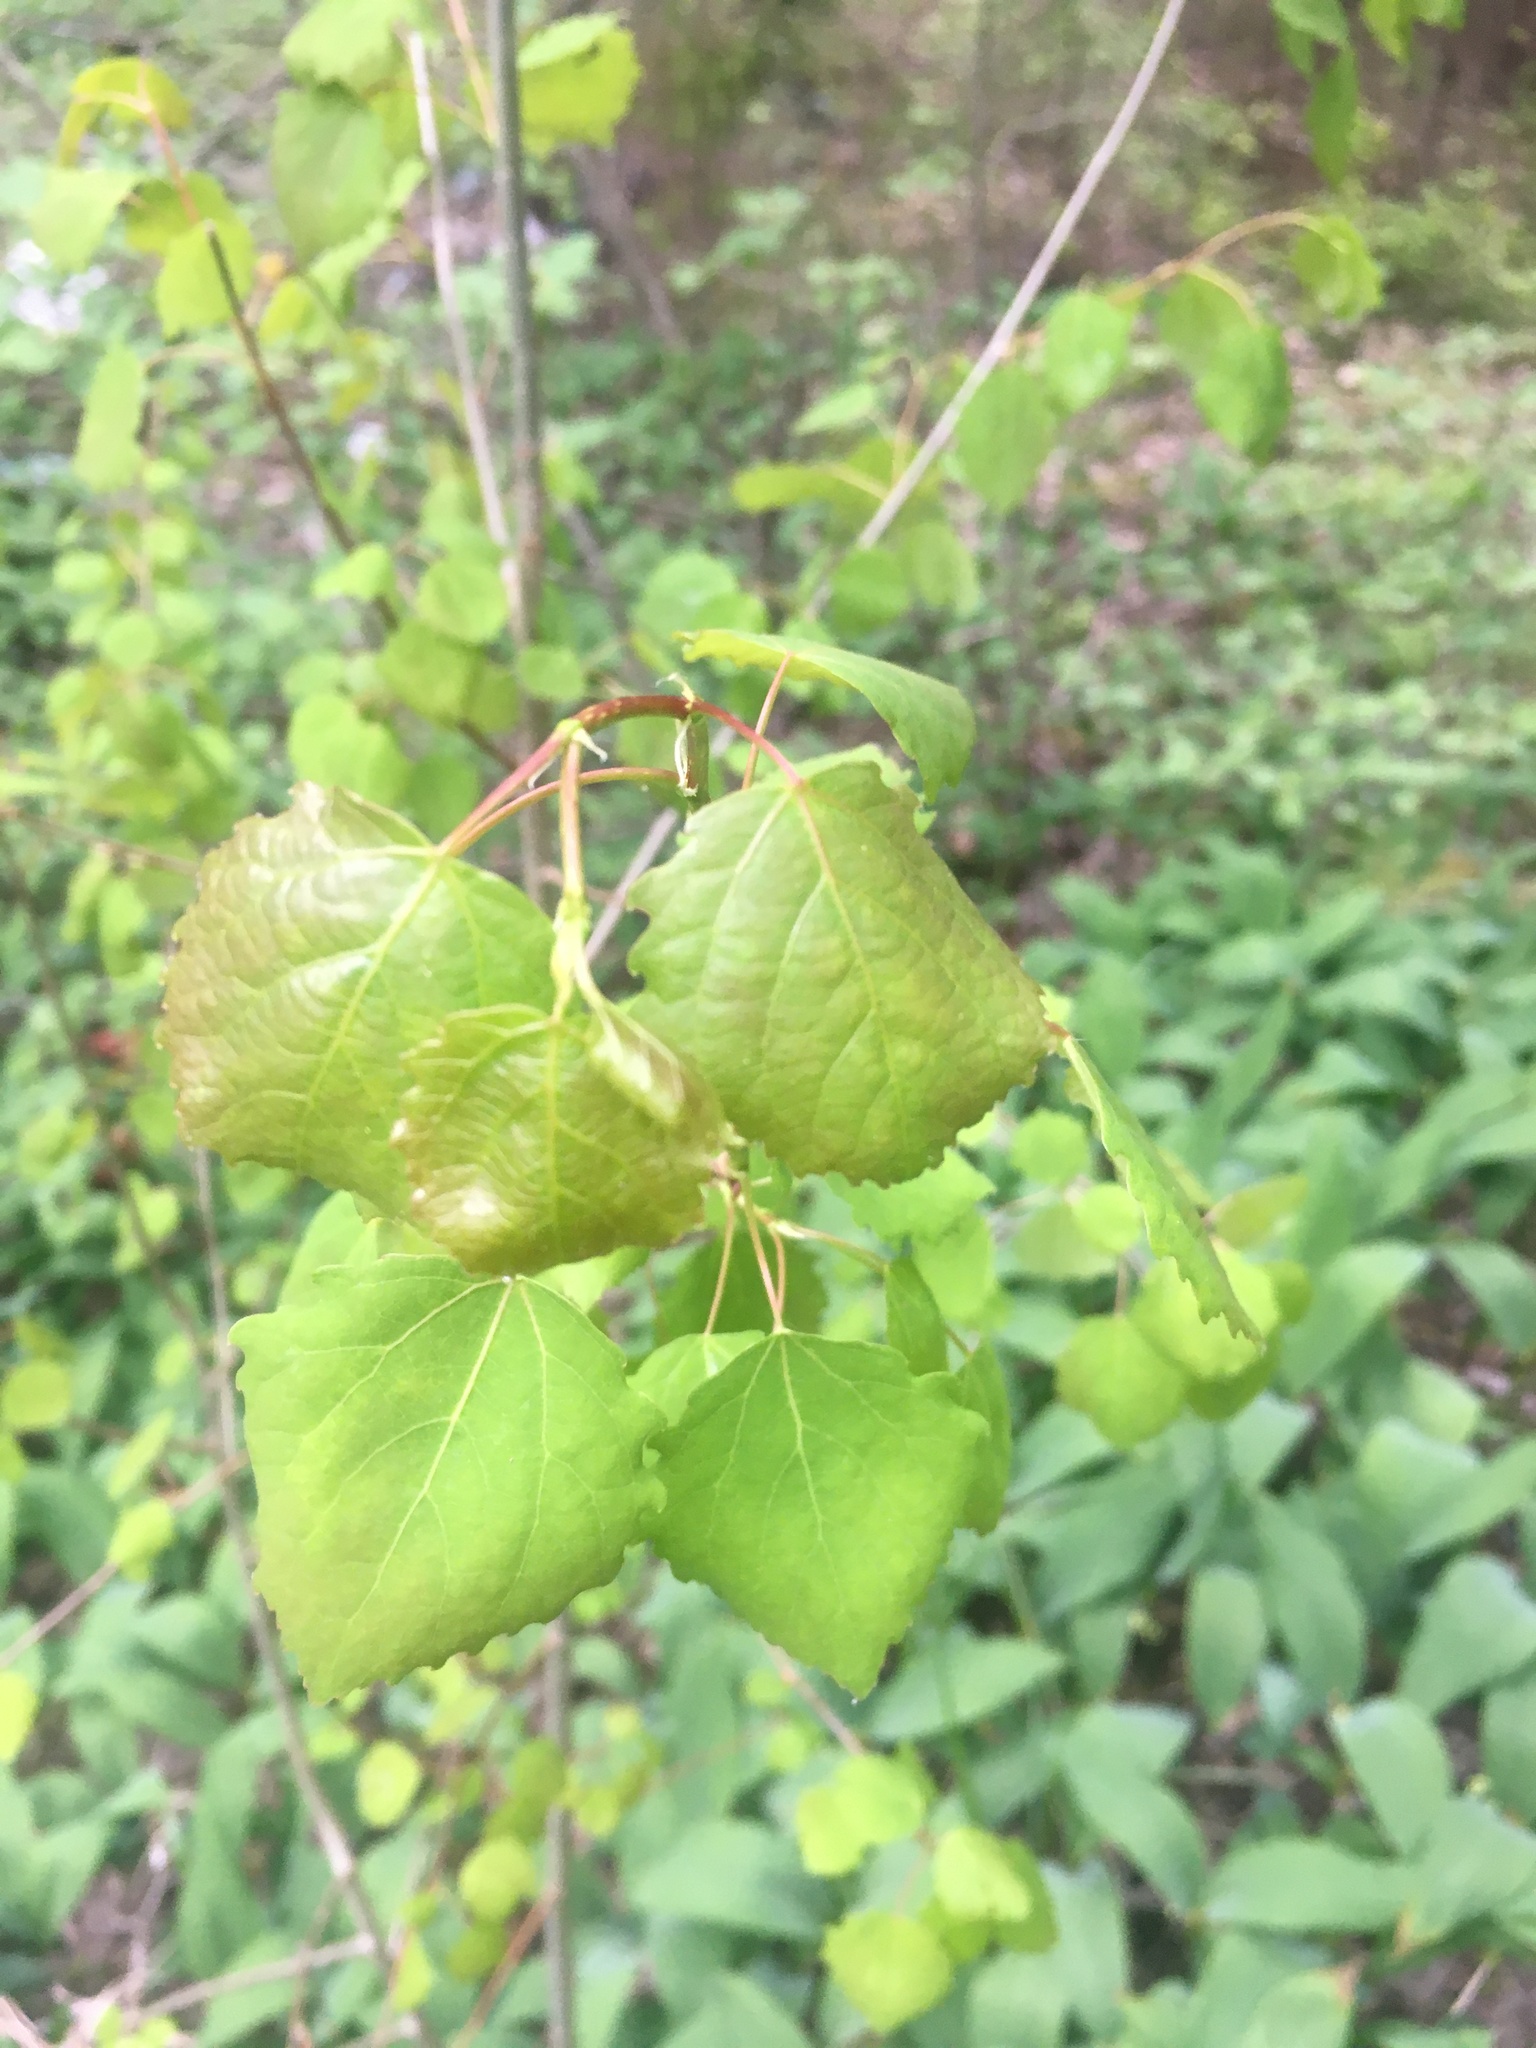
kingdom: Plantae
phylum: Tracheophyta
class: Magnoliopsida
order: Malpighiales
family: Salicaceae
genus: Populus
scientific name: Populus tremula
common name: European aspen
